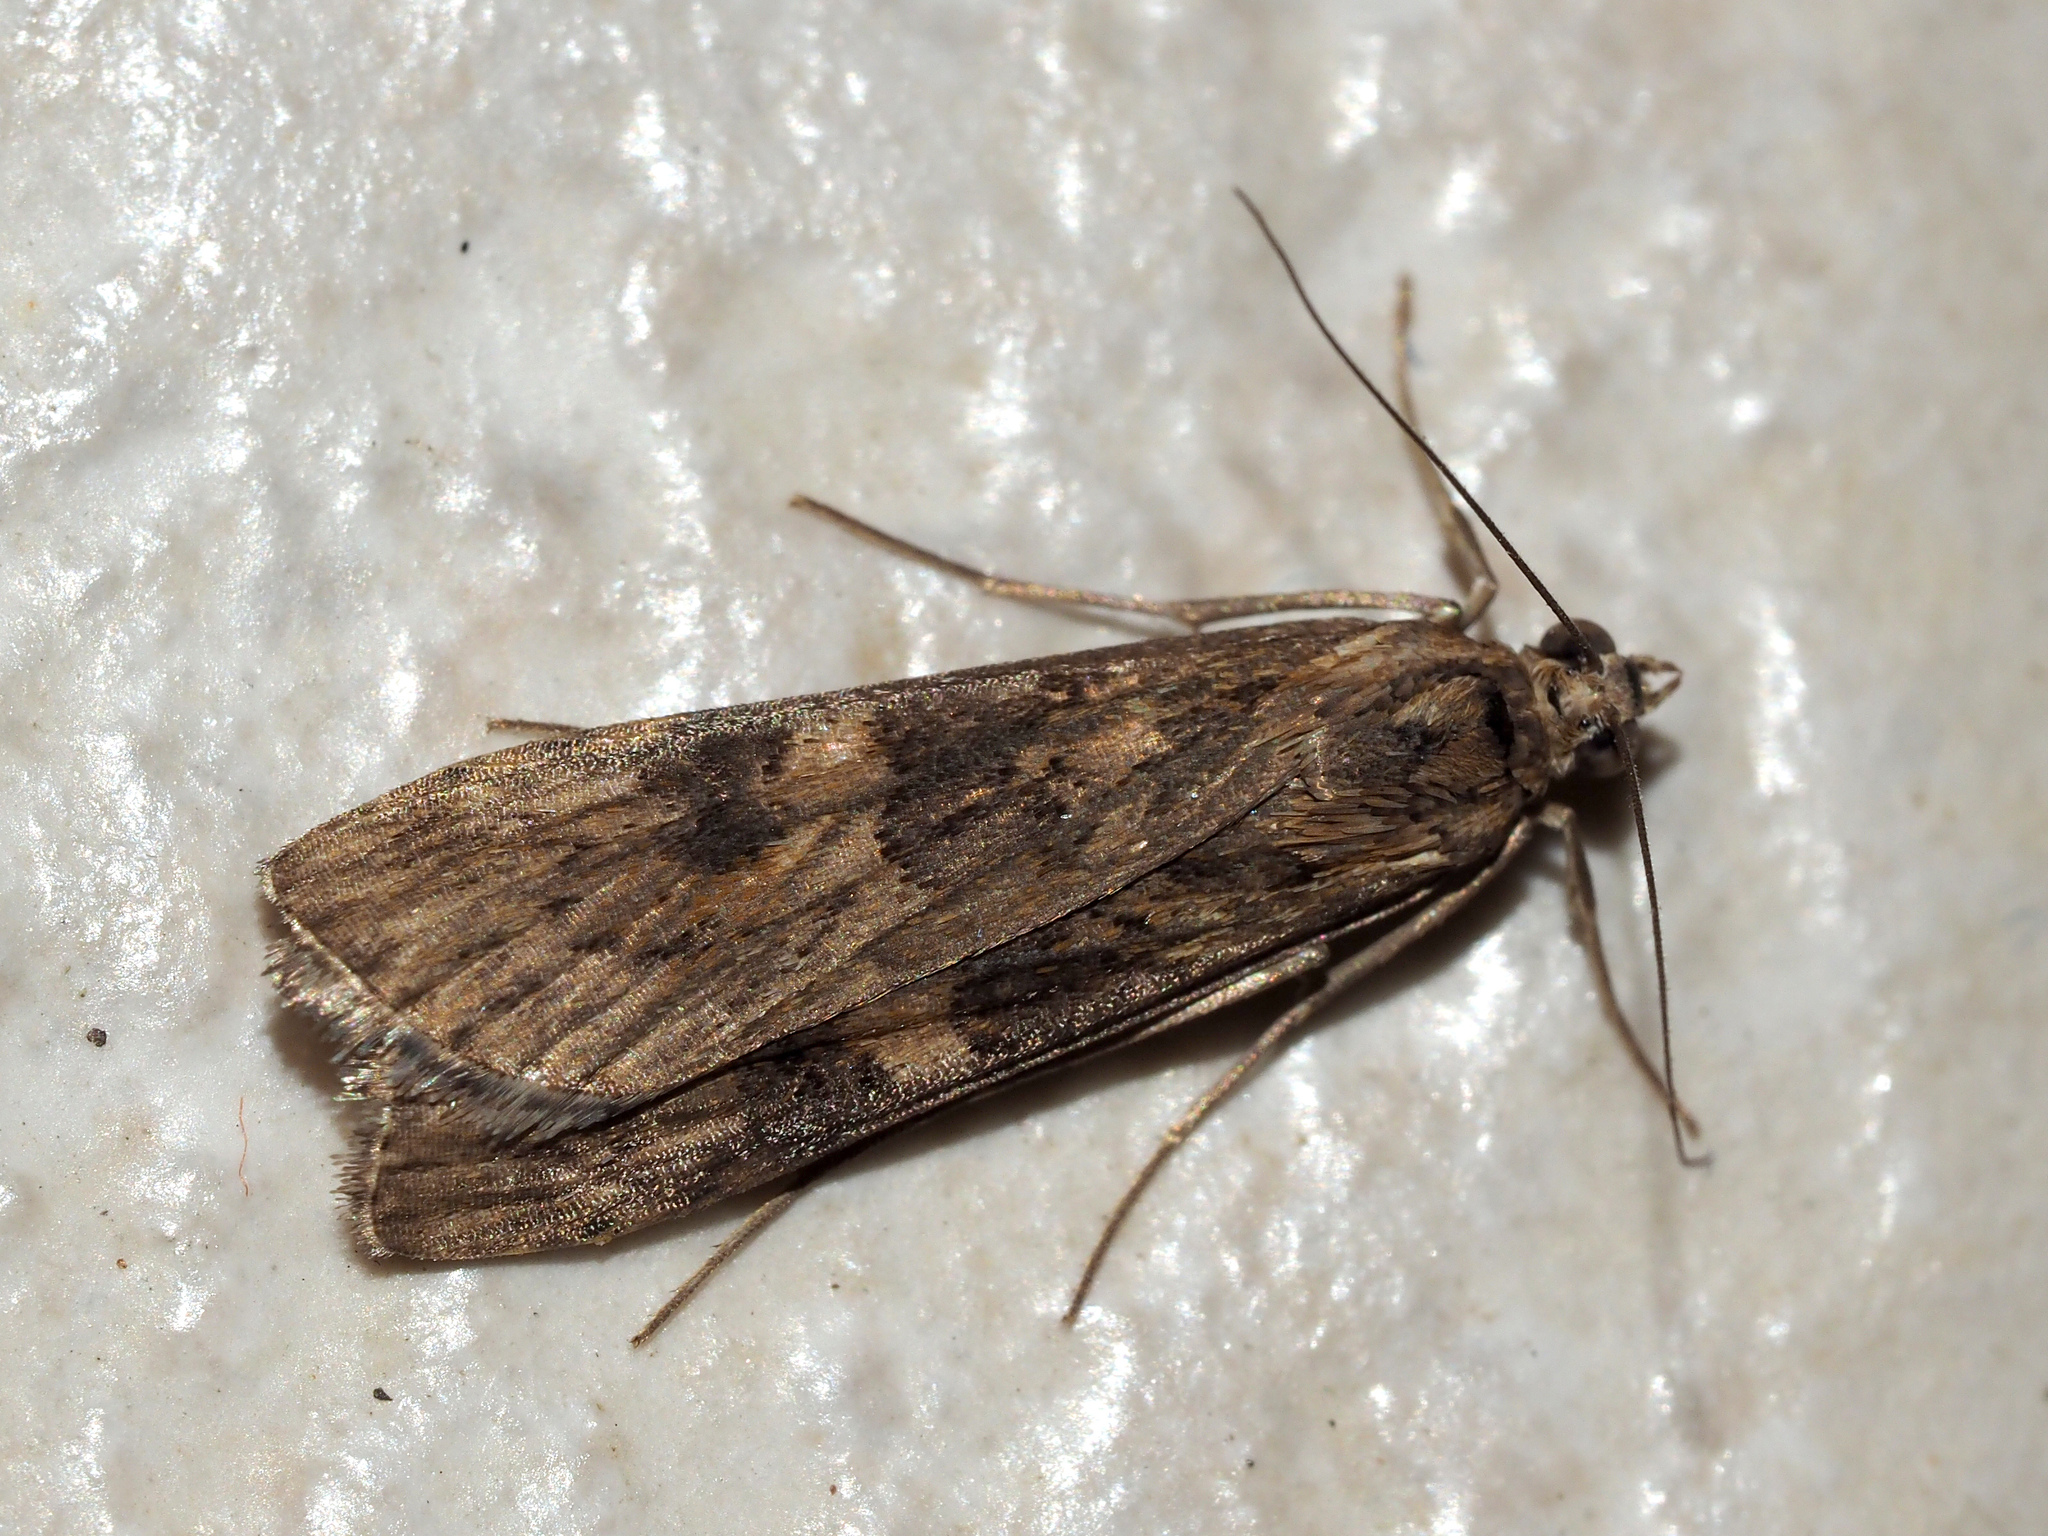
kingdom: Animalia
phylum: Arthropoda
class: Insecta
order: Lepidoptera
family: Crambidae
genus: Nomophila
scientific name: Nomophila noctuella
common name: Rush veneer
